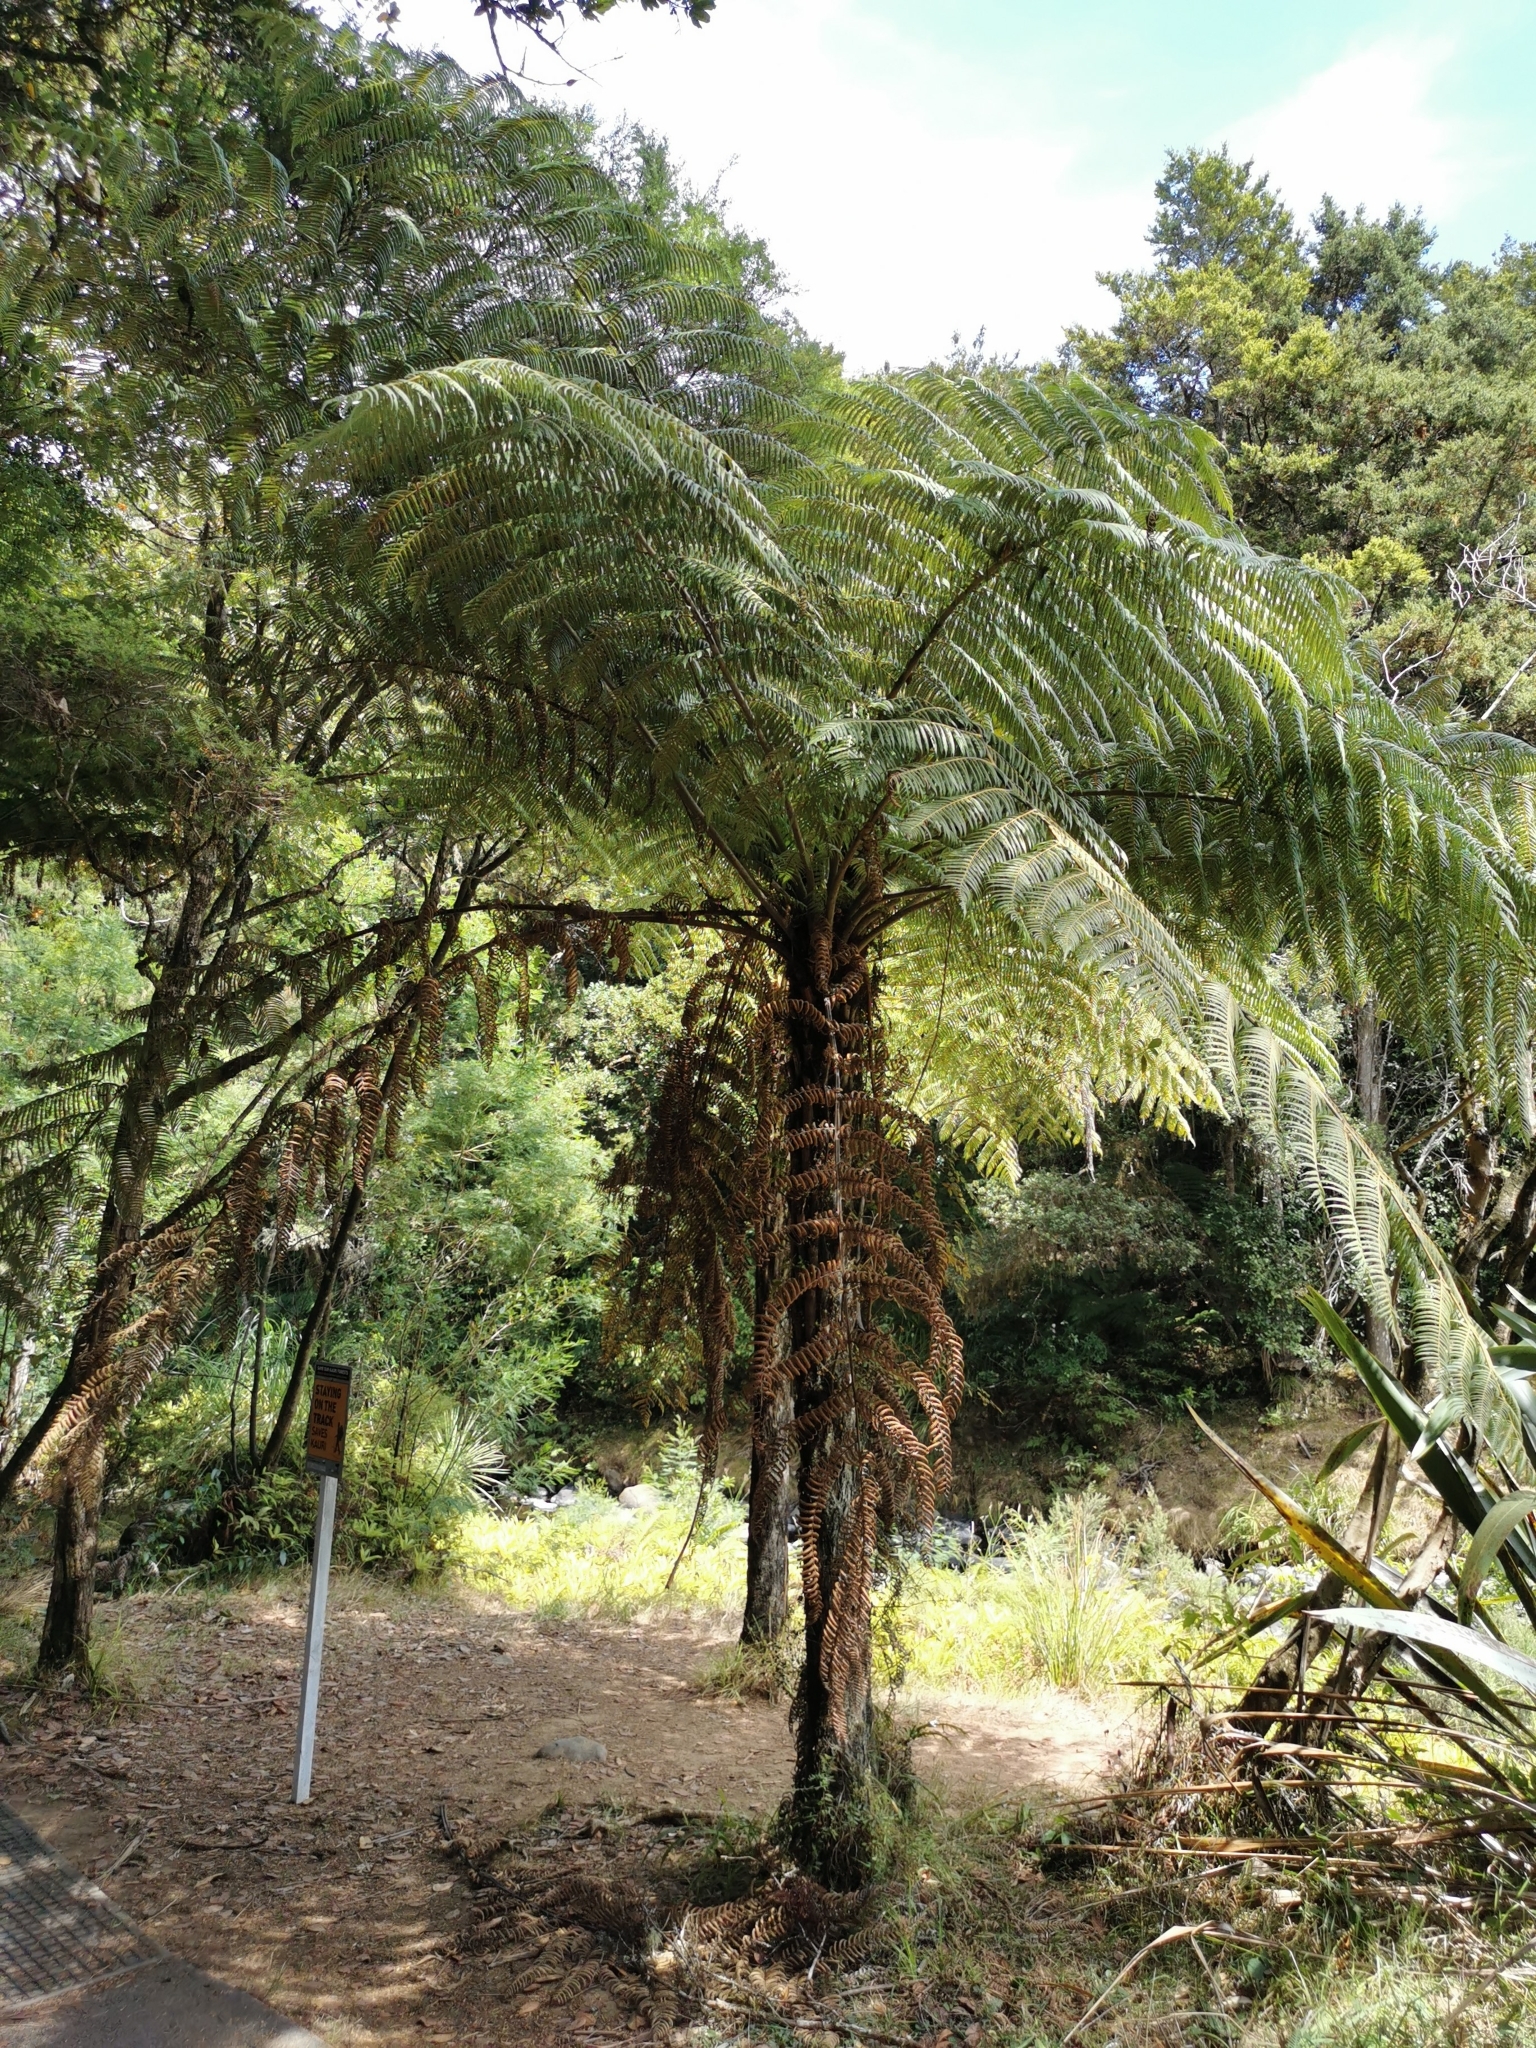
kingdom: Plantae
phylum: Tracheophyta
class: Polypodiopsida
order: Cyatheales
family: Cyatheaceae
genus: Alsophila
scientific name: Alsophila dealbata
